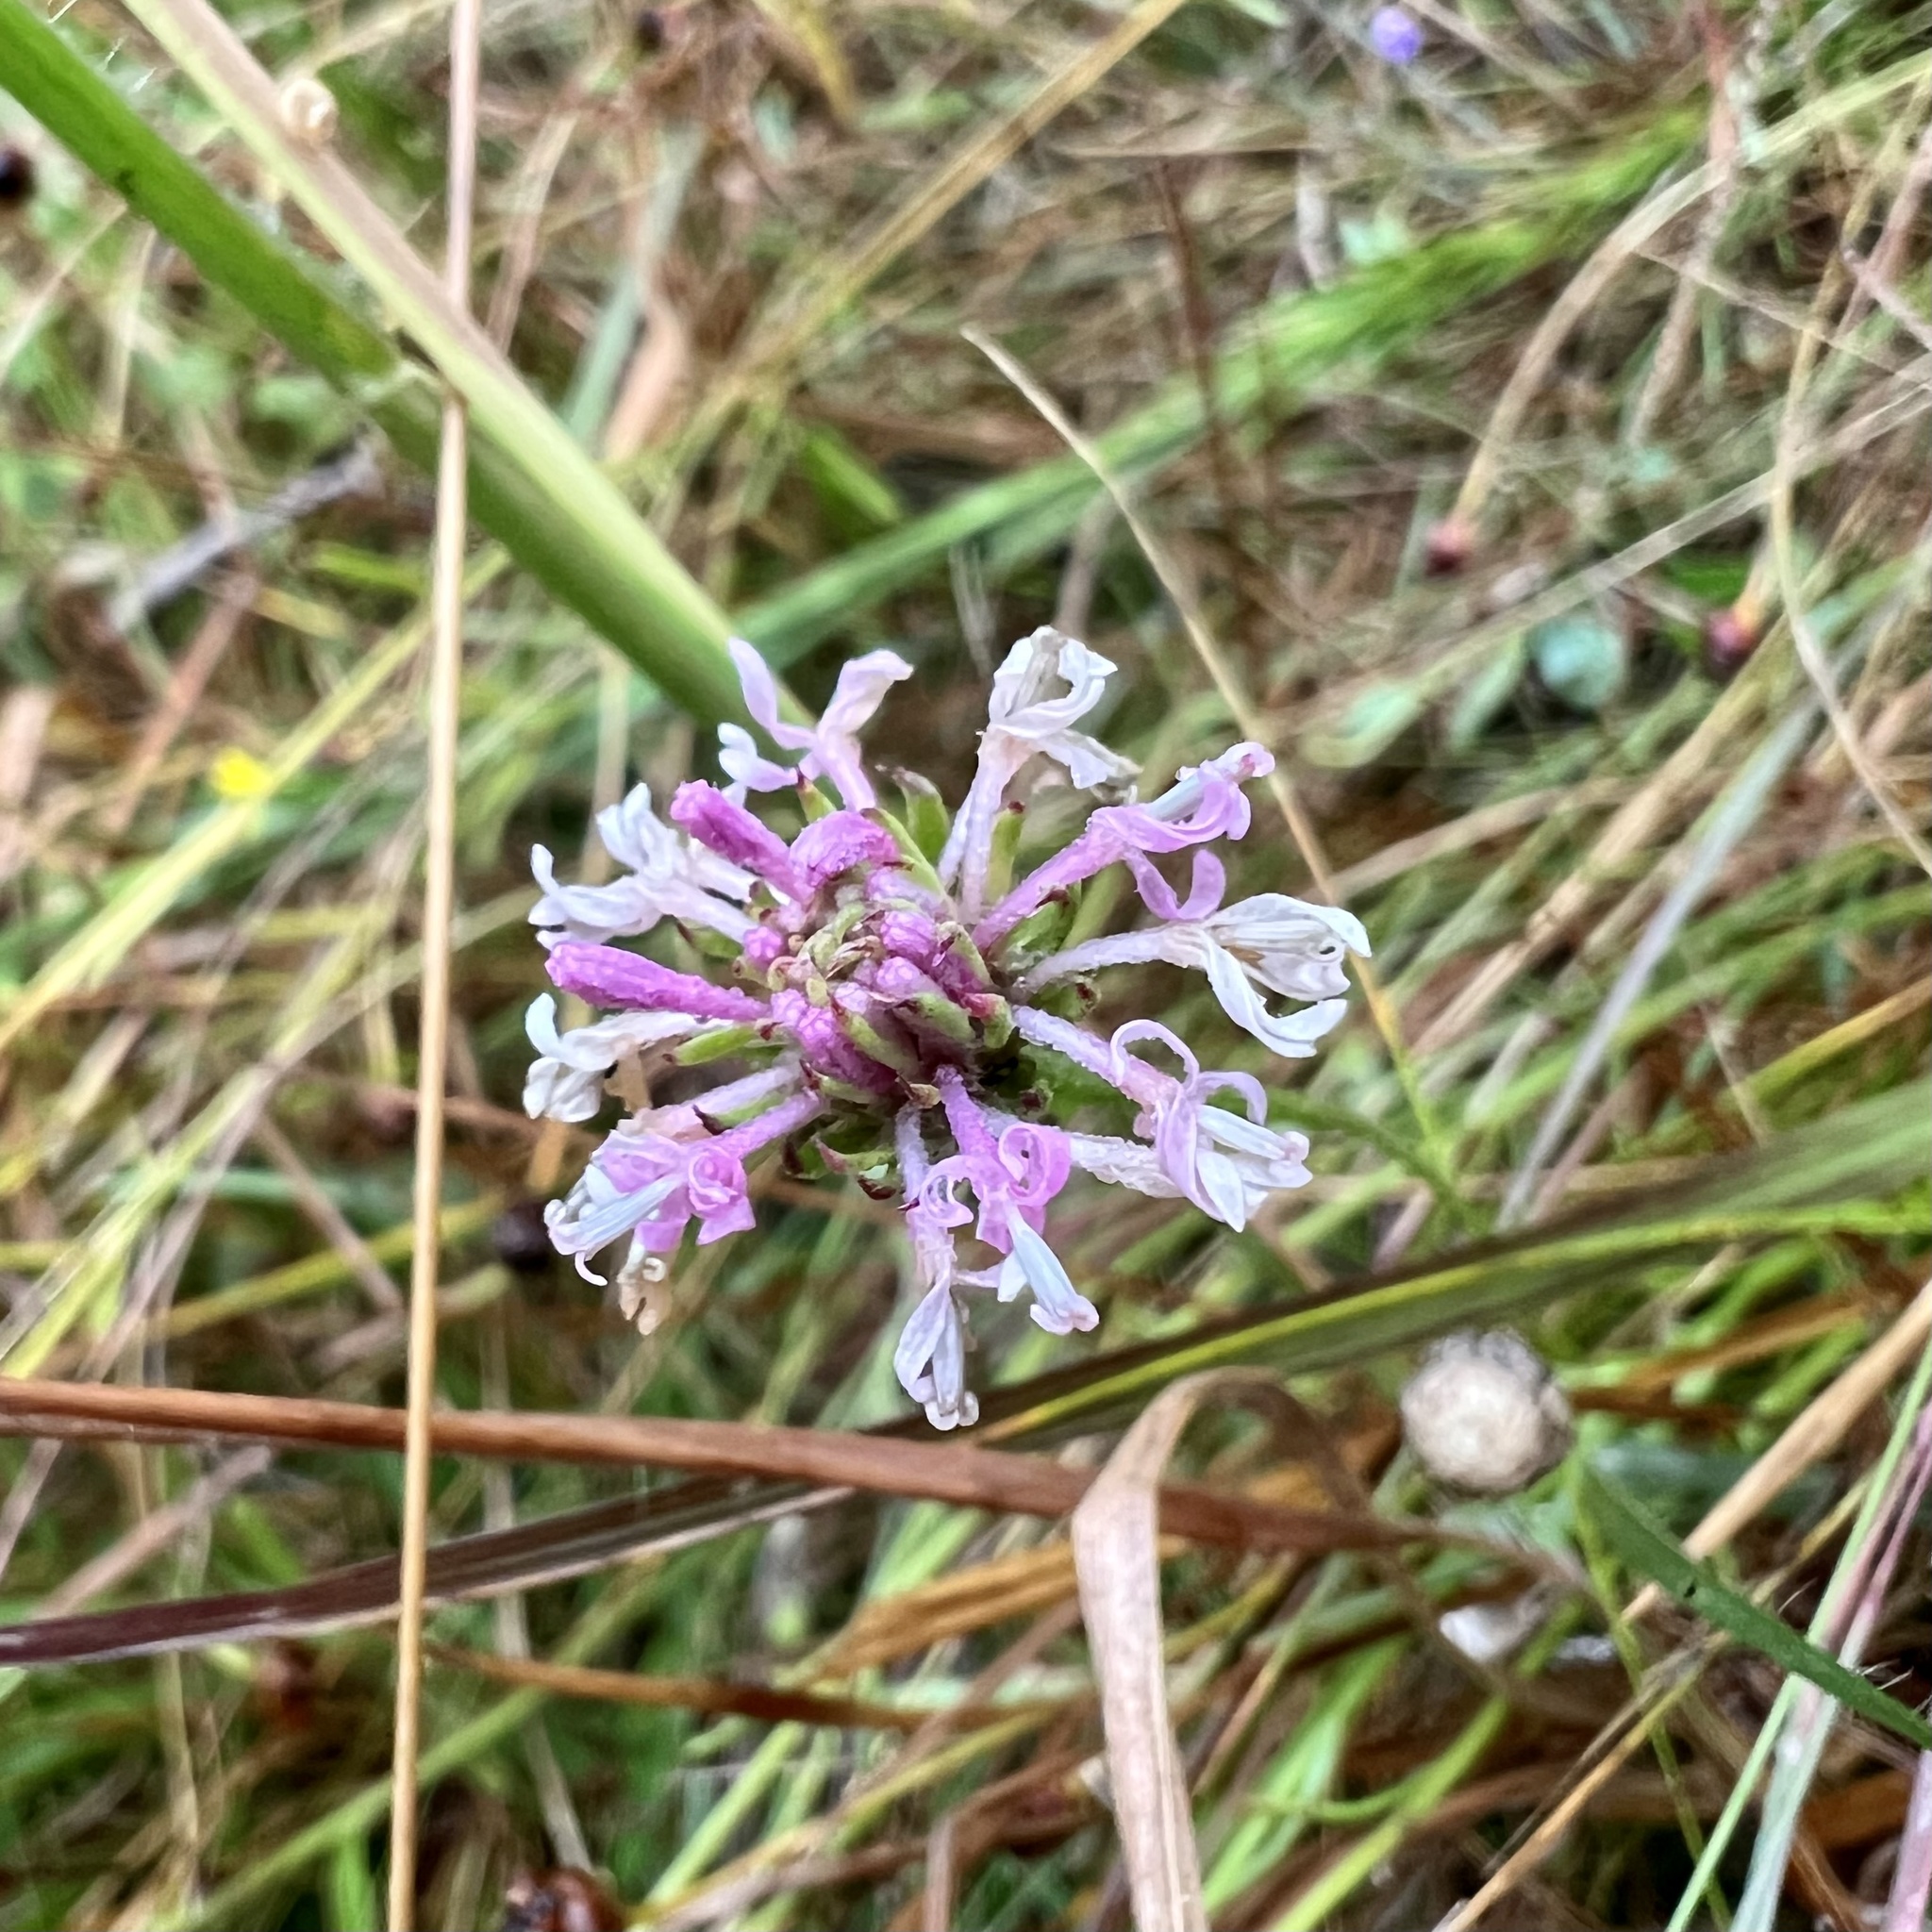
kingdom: Plantae
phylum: Tracheophyta
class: Magnoliopsida
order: Asterales
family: Asteraceae
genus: Marshallia
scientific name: Marshallia graminifolia
